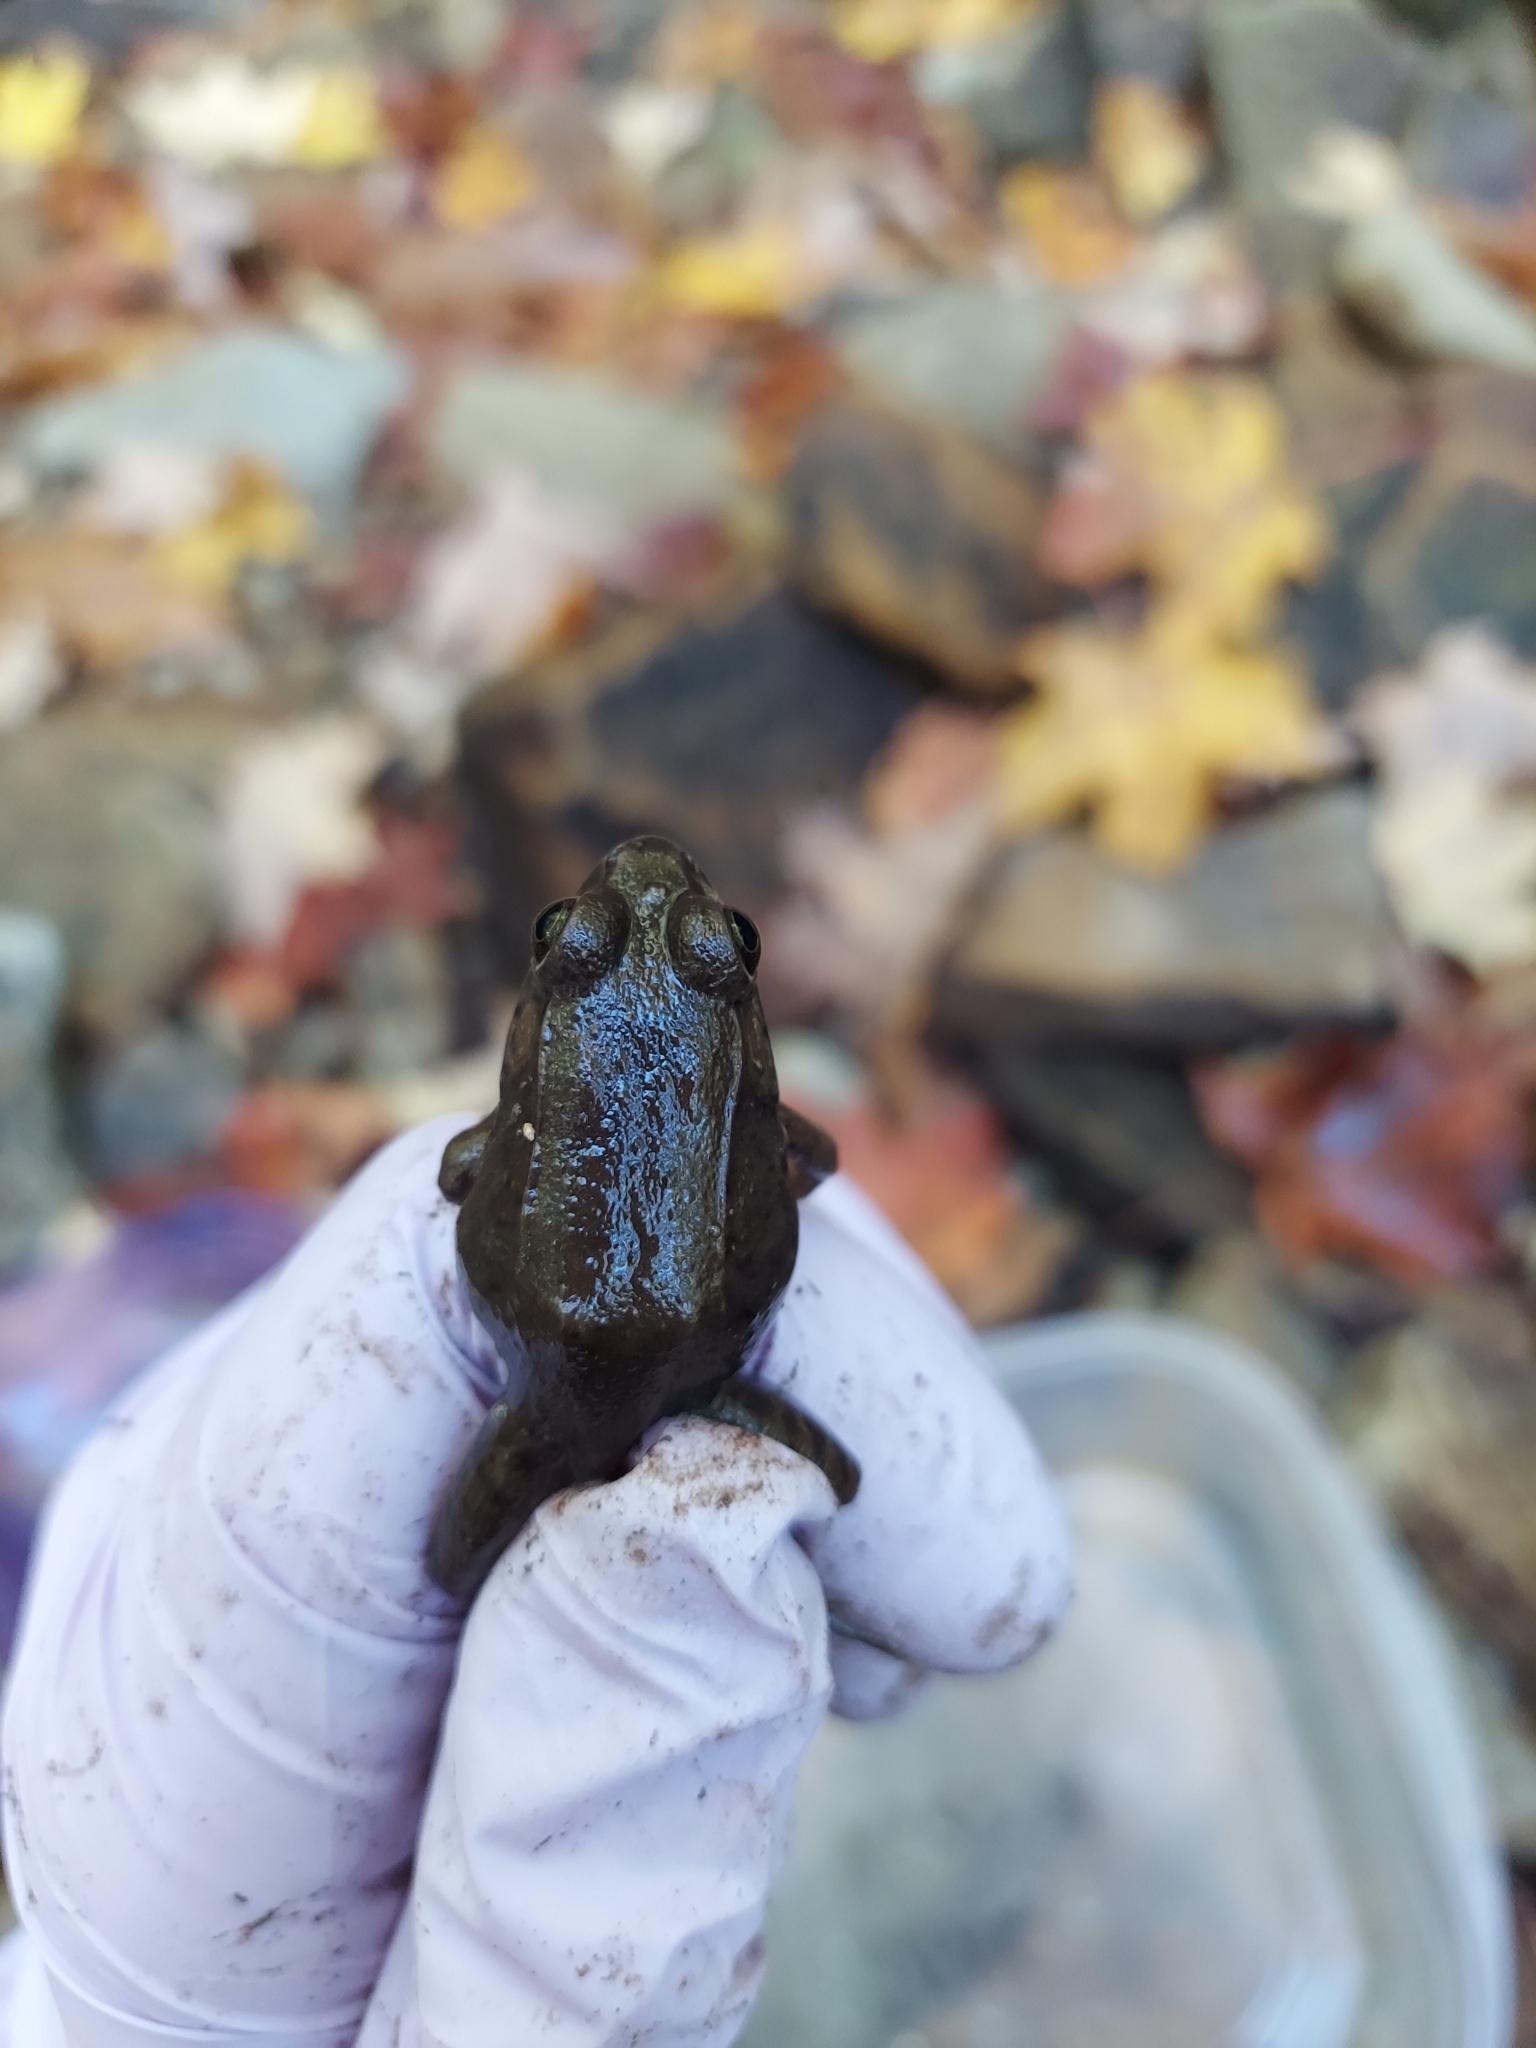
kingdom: Animalia
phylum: Chordata
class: Amphibia
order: Anura
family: Ranidae
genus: Lithobates
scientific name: Lithobates clamitans
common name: Green frog
